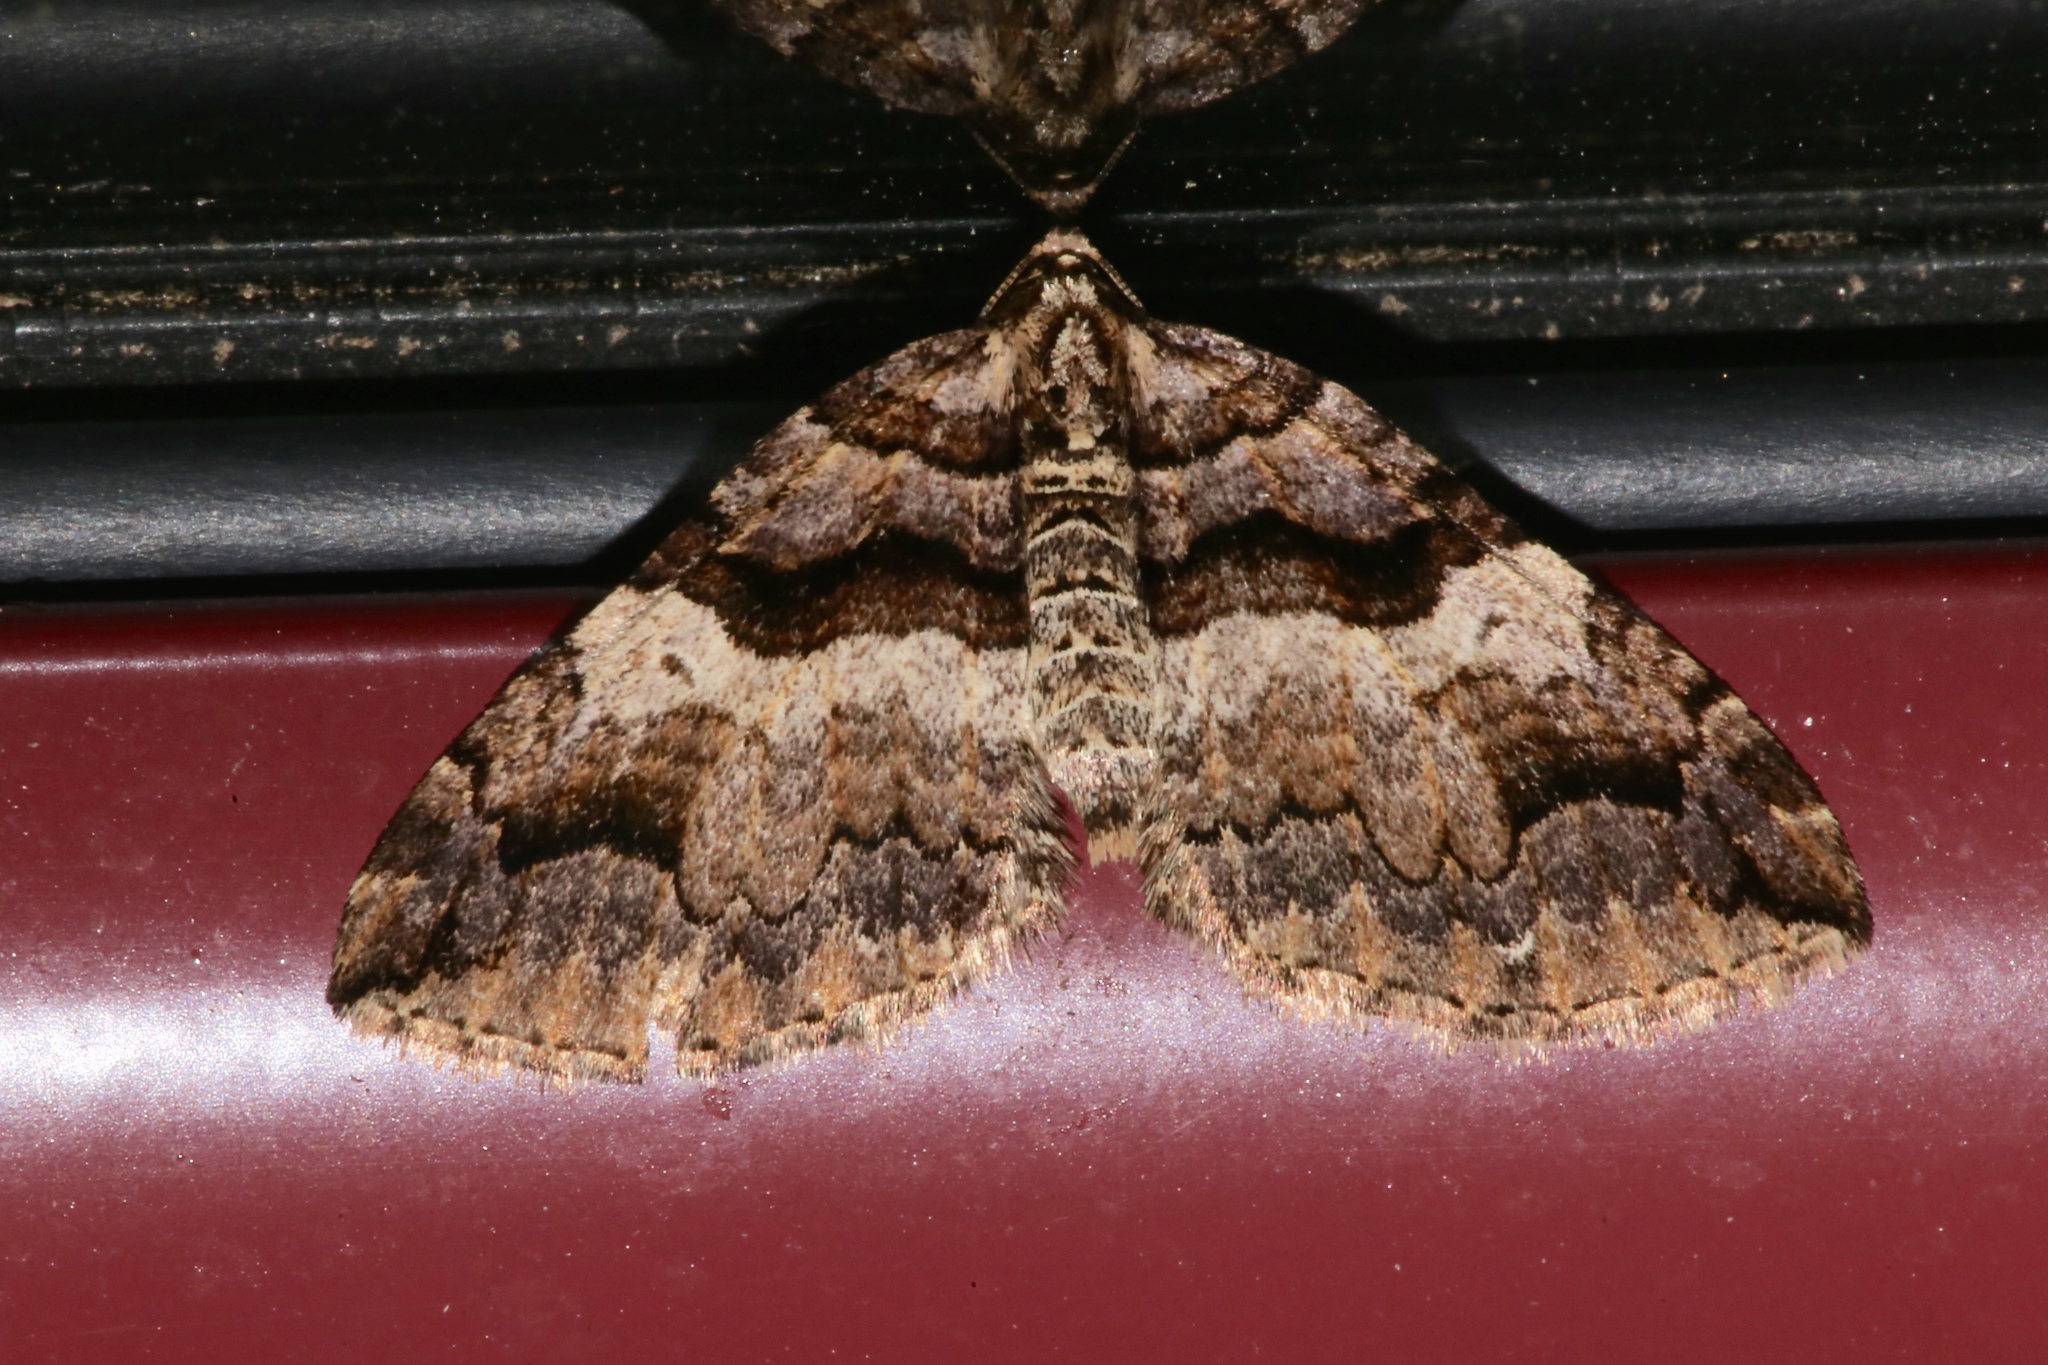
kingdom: Animalia
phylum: Arthropoda
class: Insecta
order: Lepidoptera
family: Geometridae
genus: Anticlea
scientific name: Anticlea vasiliata
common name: Variable carpet
